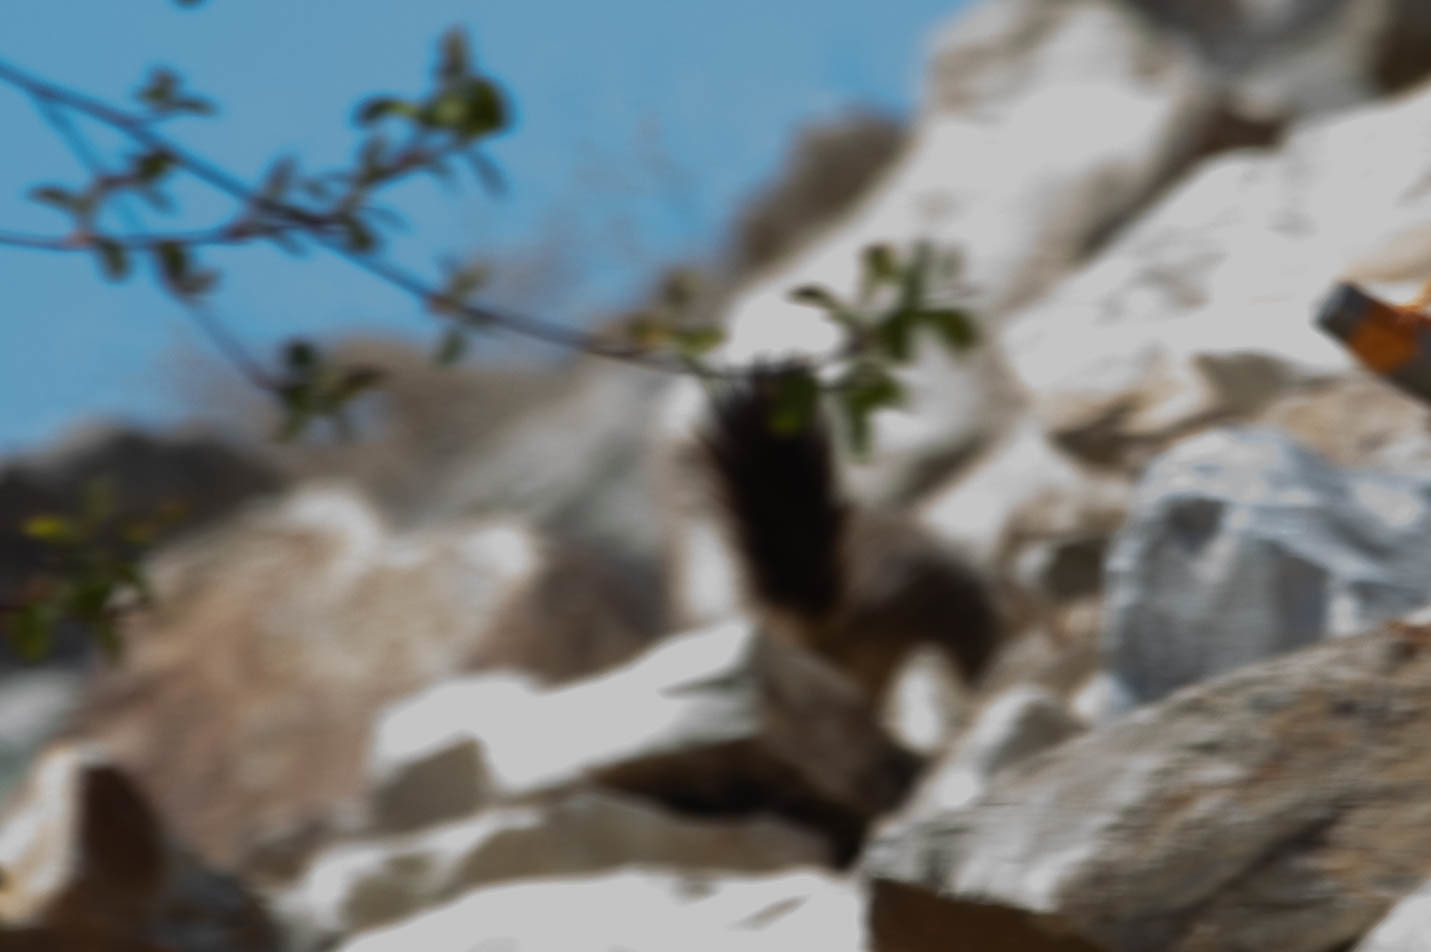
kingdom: Animalia
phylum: Chordata
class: Mammalia
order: Rodentia
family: Sciuridae
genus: Marmota
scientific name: Marmota flaviventris
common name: Yellow-bellied marmot
